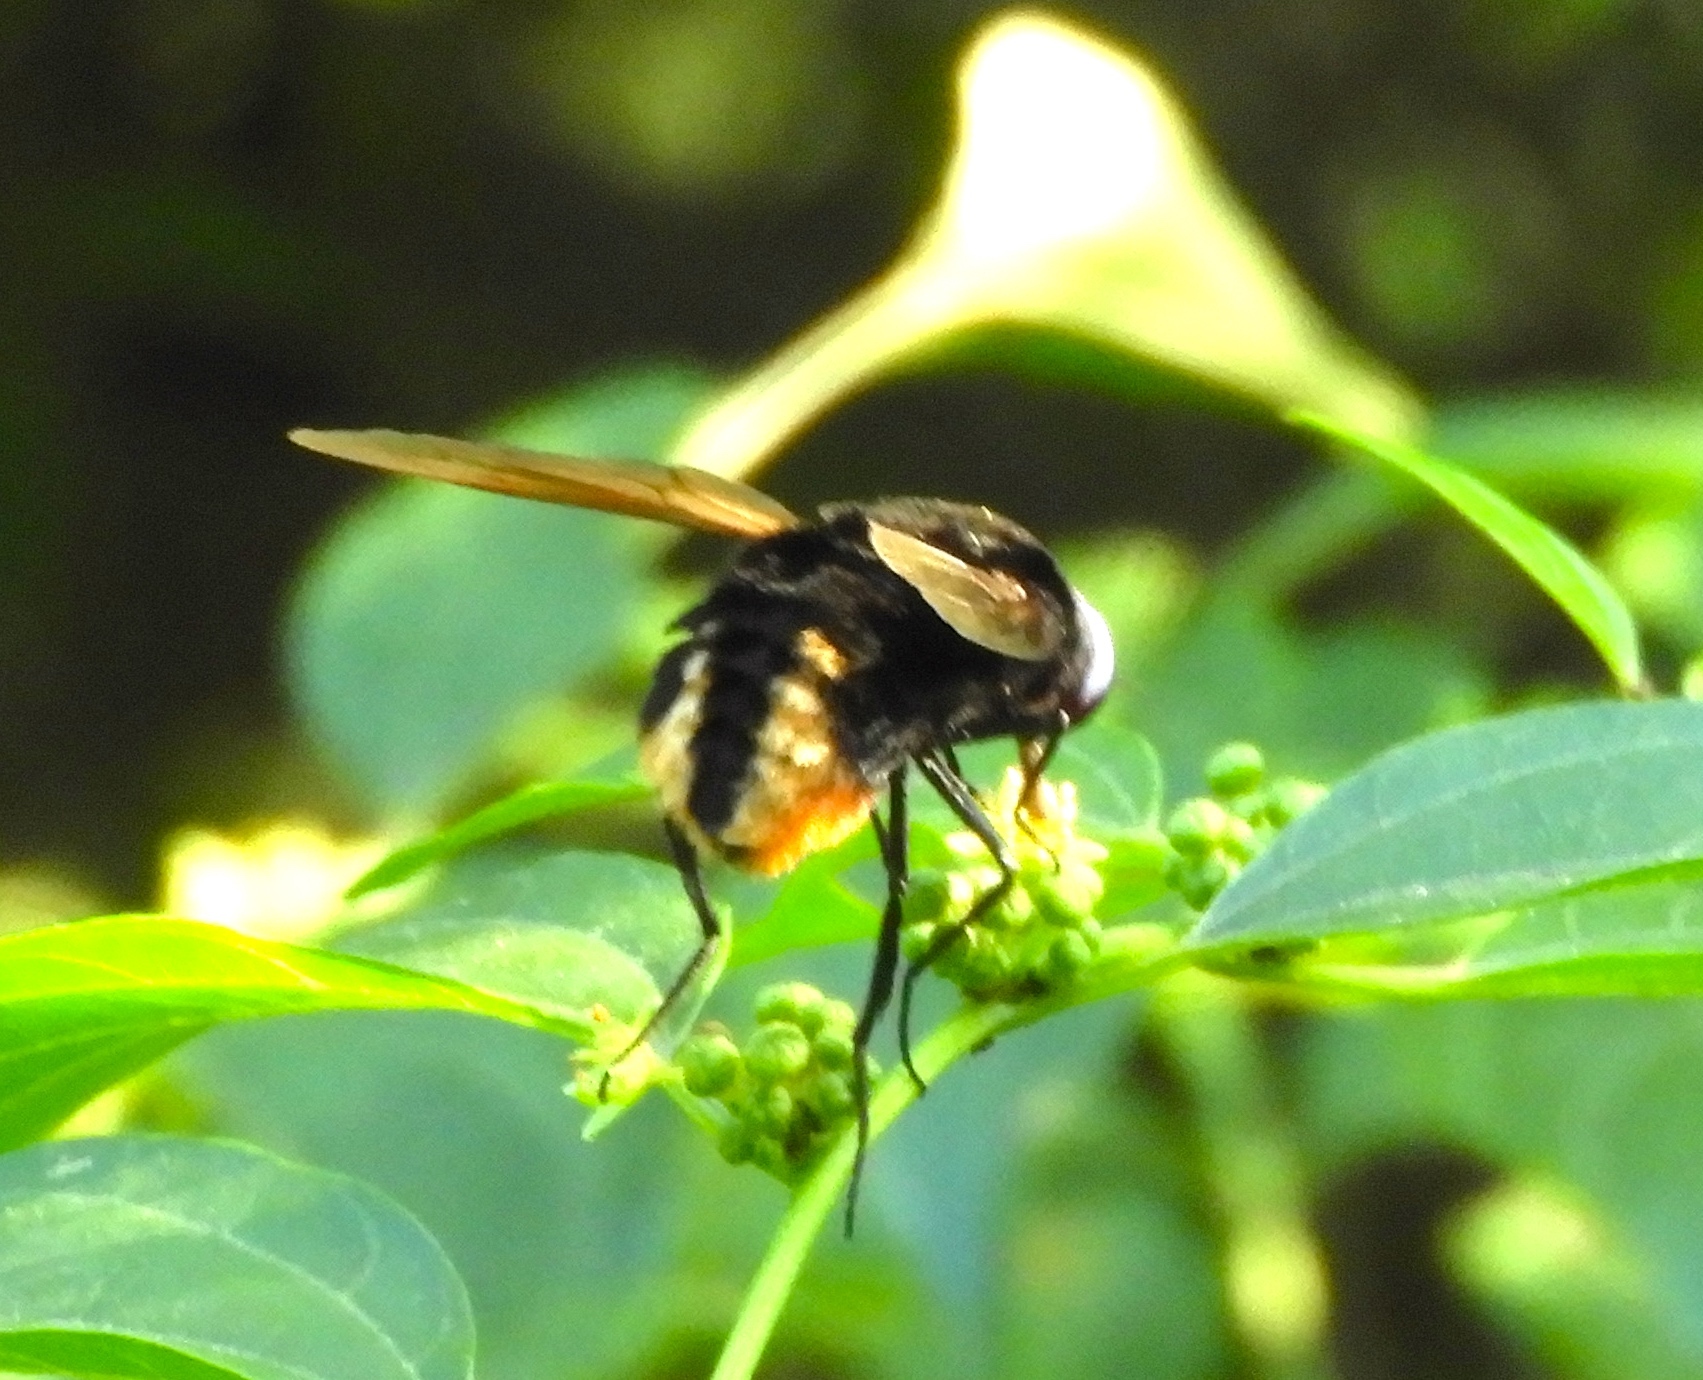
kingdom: Animalia
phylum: Arthropoda
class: Insecta
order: Diptera
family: Bombyliidae
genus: Bryodemina
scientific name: Bryodemina valida
